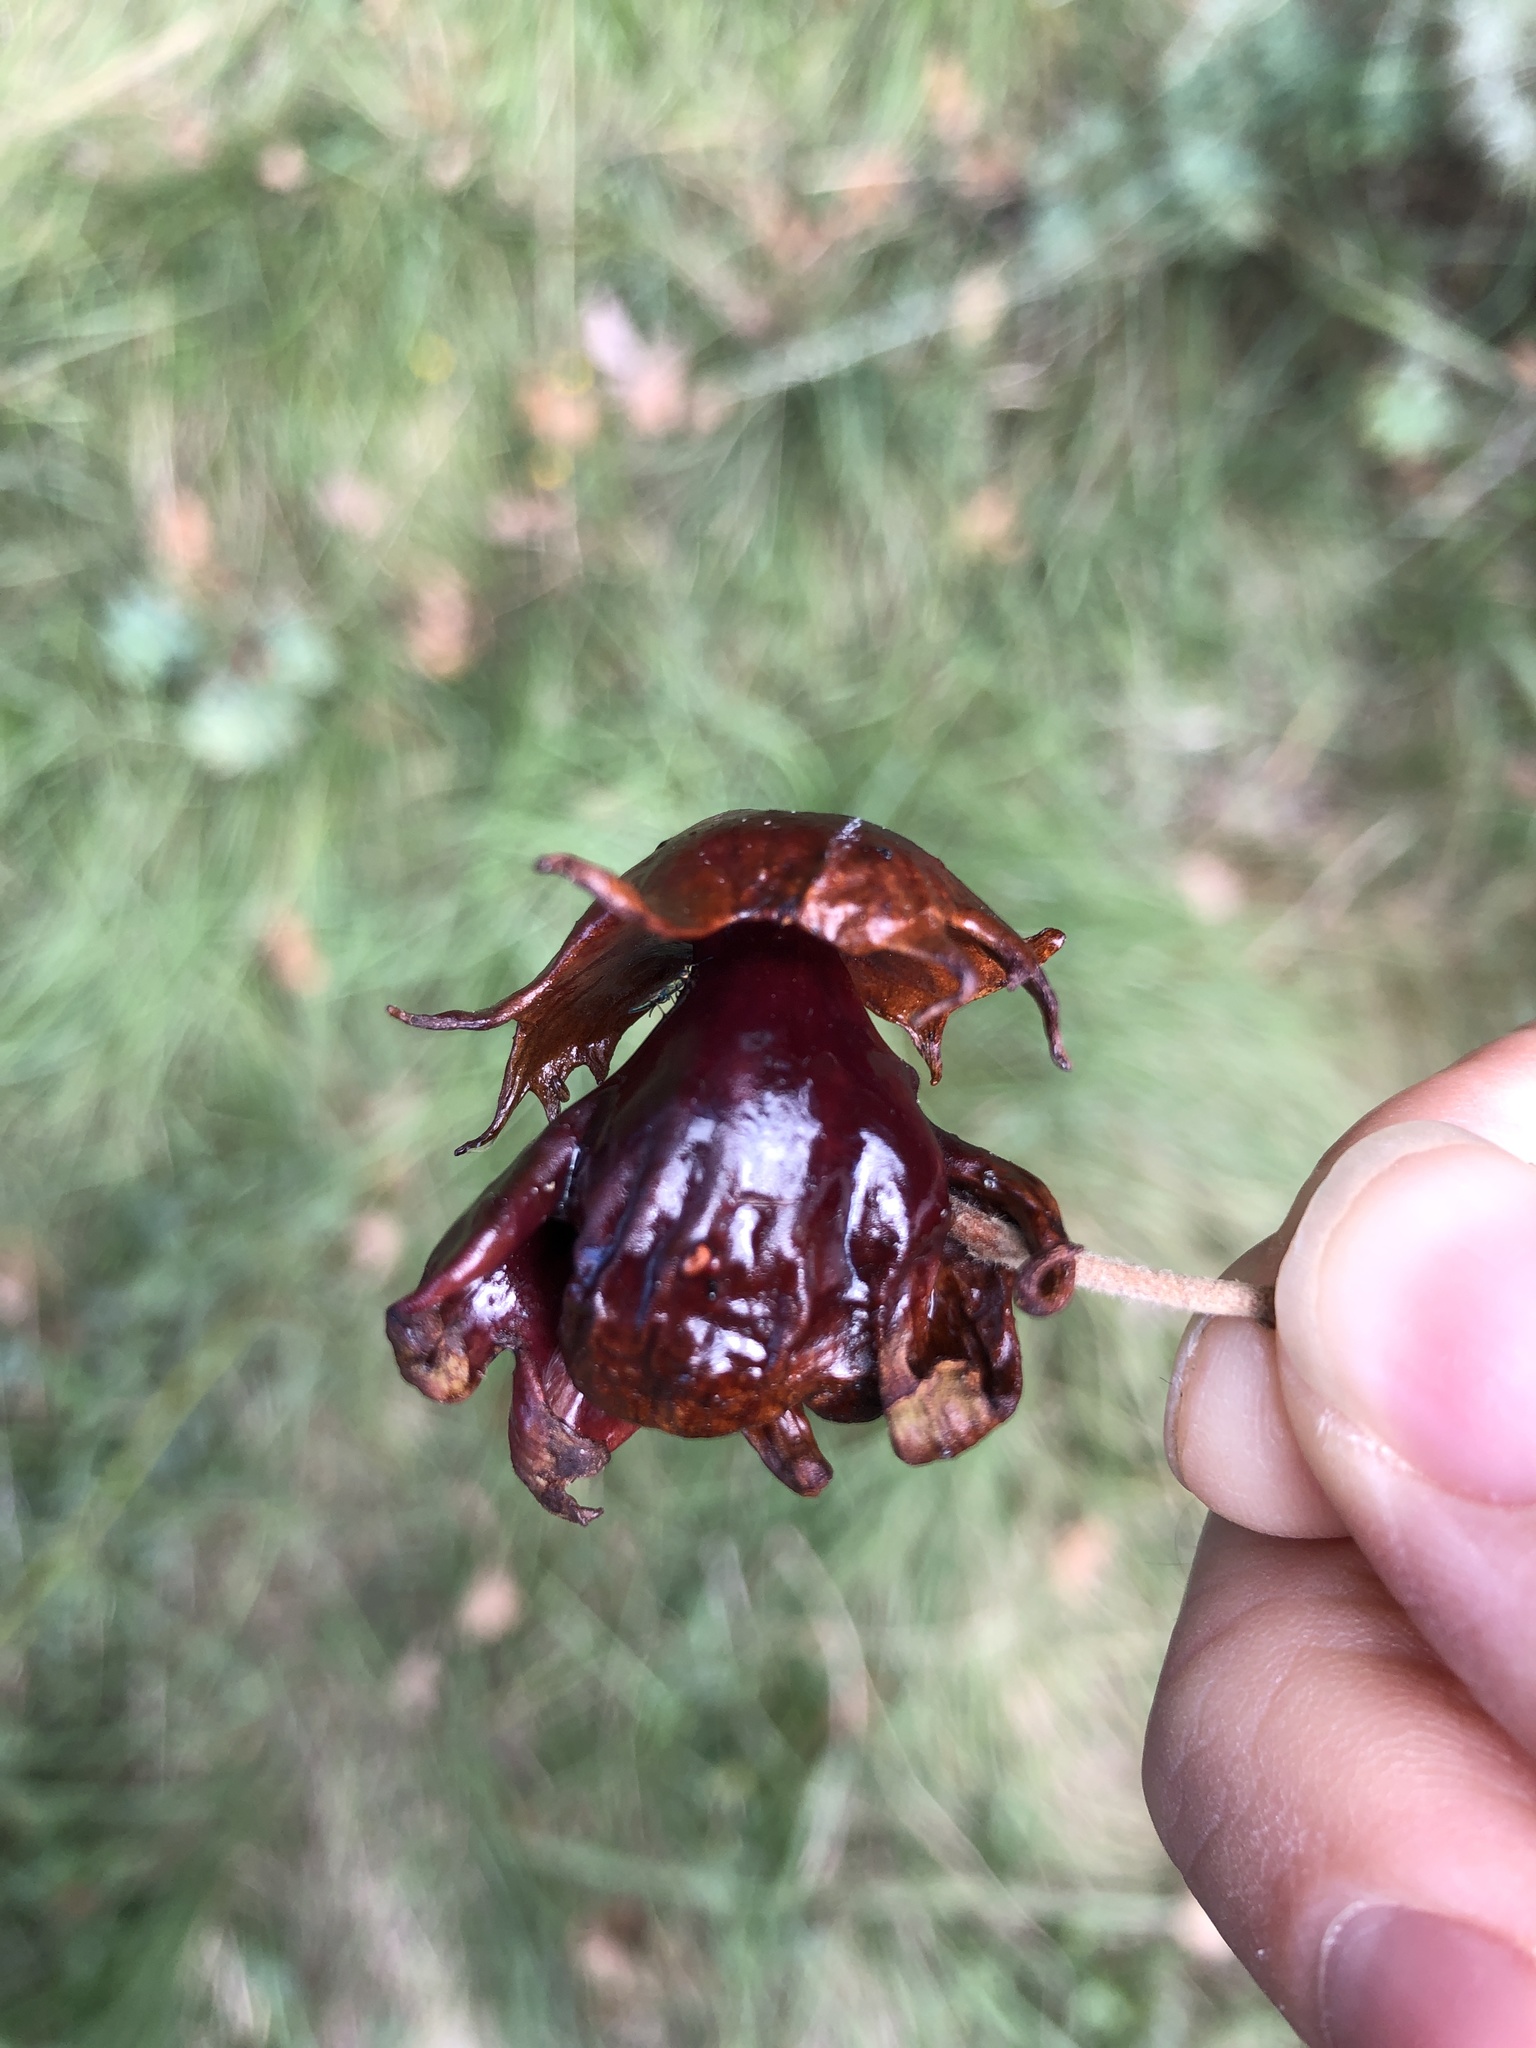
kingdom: Animalia
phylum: Arthropoda
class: Insecta
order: Hymenoptera
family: Cynipidae
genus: Andricus
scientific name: Andricus dentimitratus
